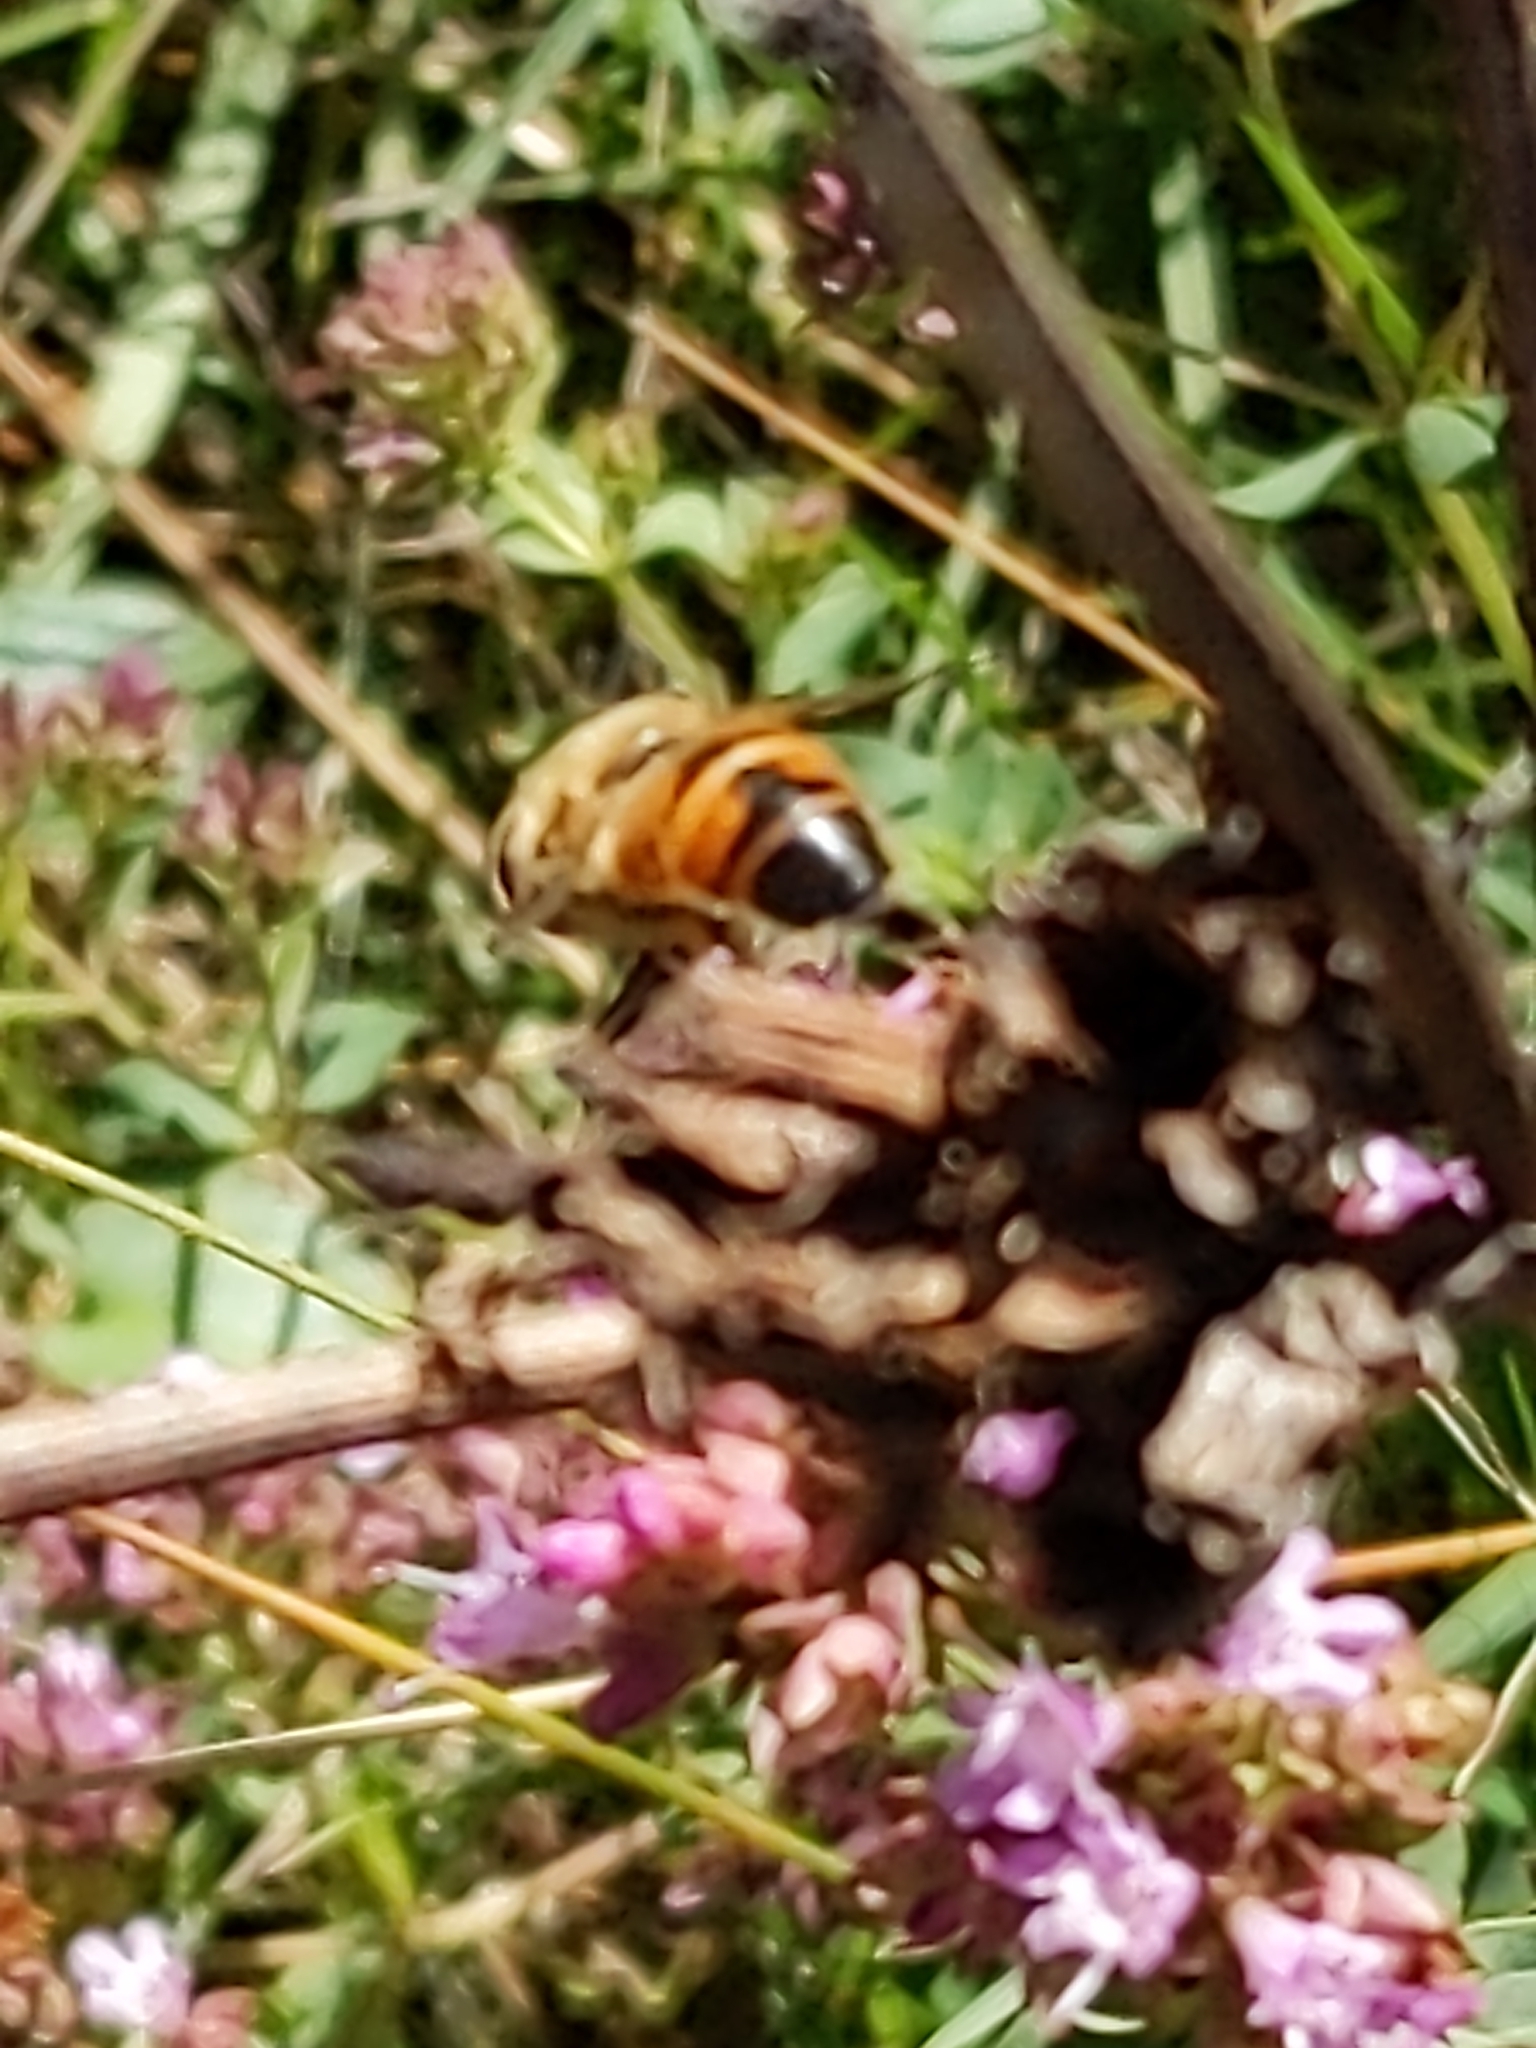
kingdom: Animalia
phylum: Arthropoda
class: Insecta
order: Diptera
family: Syrphidae
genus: Eristalis
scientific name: Eristalis tenax
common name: Drone fly
